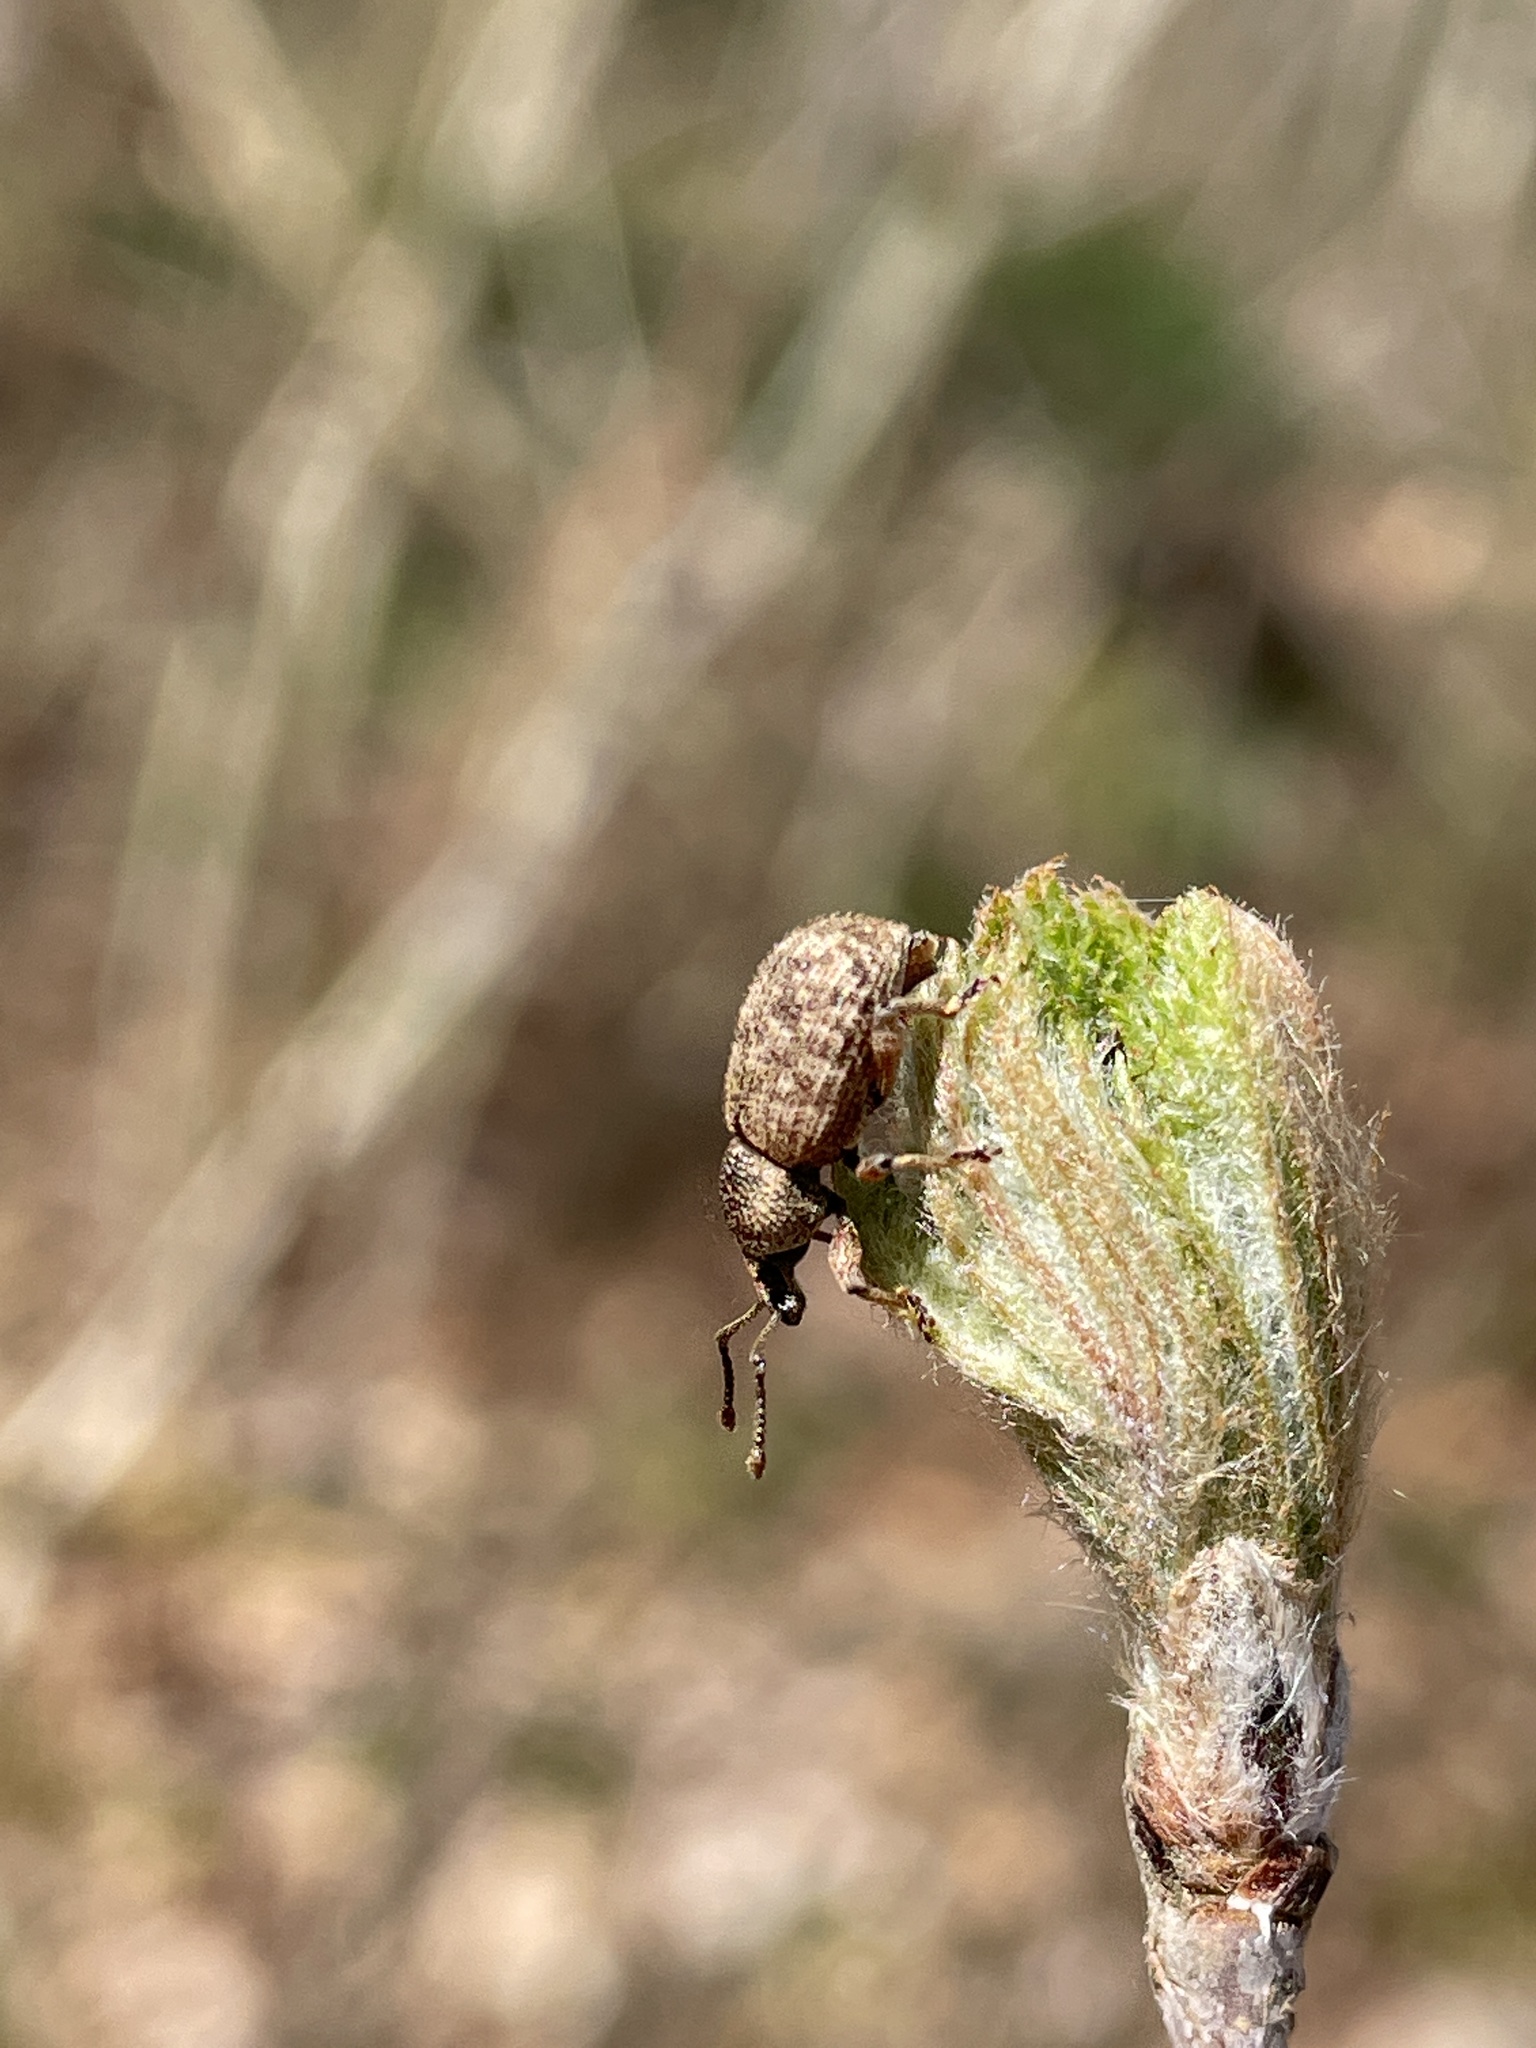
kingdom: Animalia
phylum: Arthropoda
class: Insecta
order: Coleoptera
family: Curculionidae
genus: Otiorhynchus
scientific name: Otiorhynchus singularis
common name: Clay-coloured weevil
